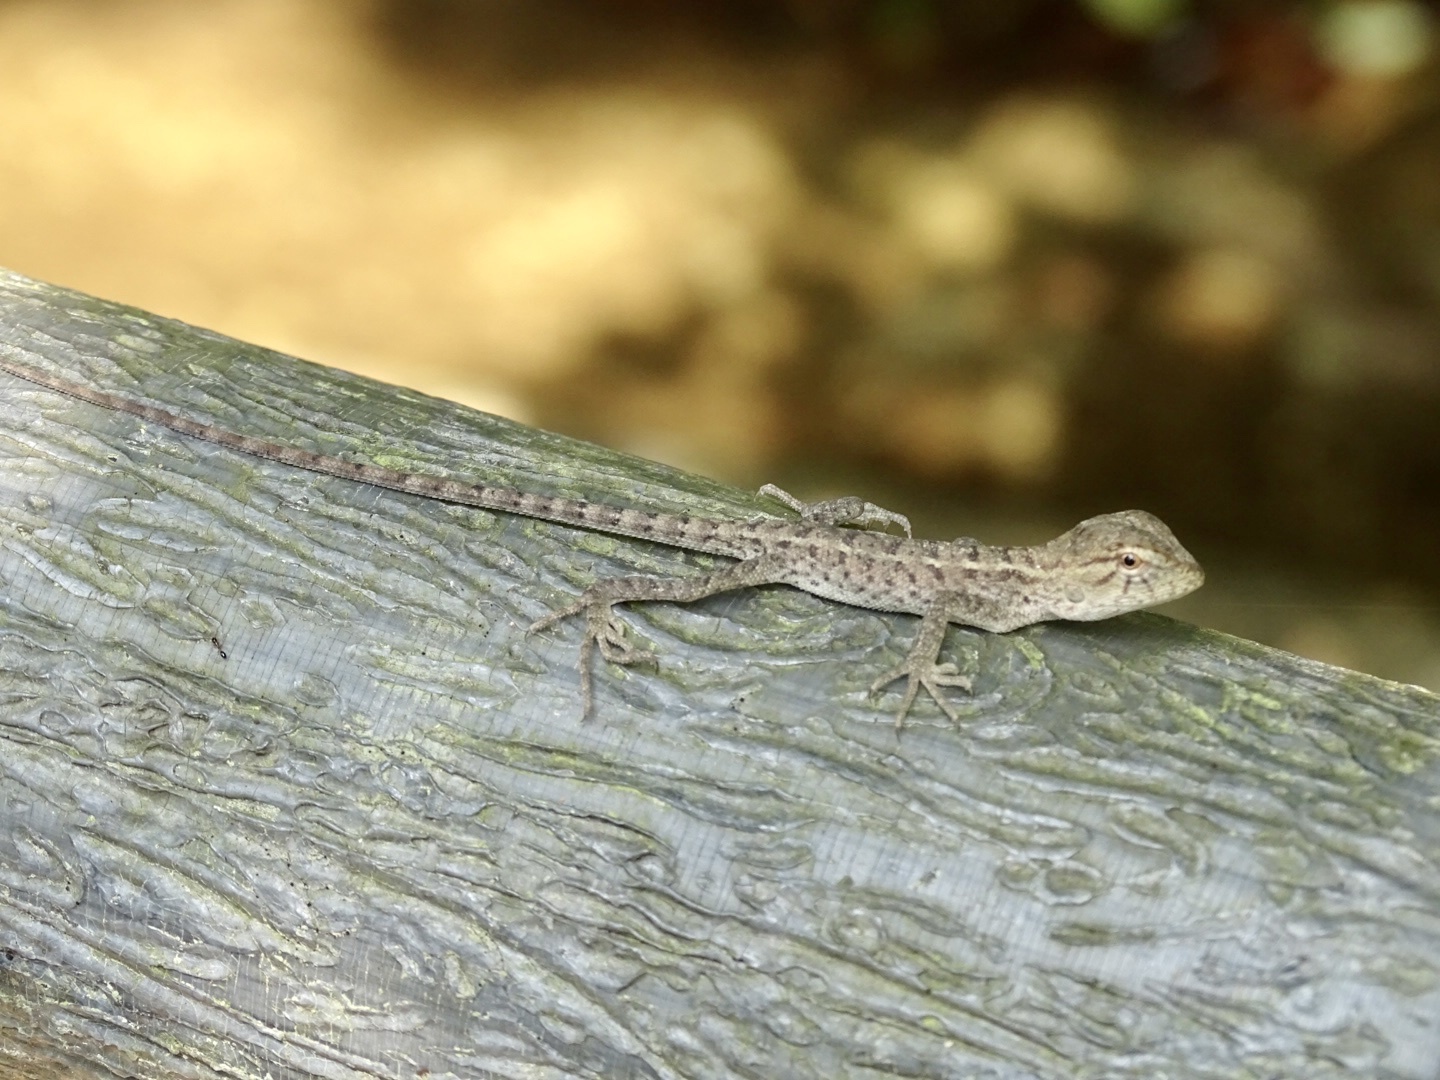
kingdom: Animalia
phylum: Chordata
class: Squamata
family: Agamidae
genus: Calotes
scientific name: Calotes versicolor
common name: Oriental garden lizard
